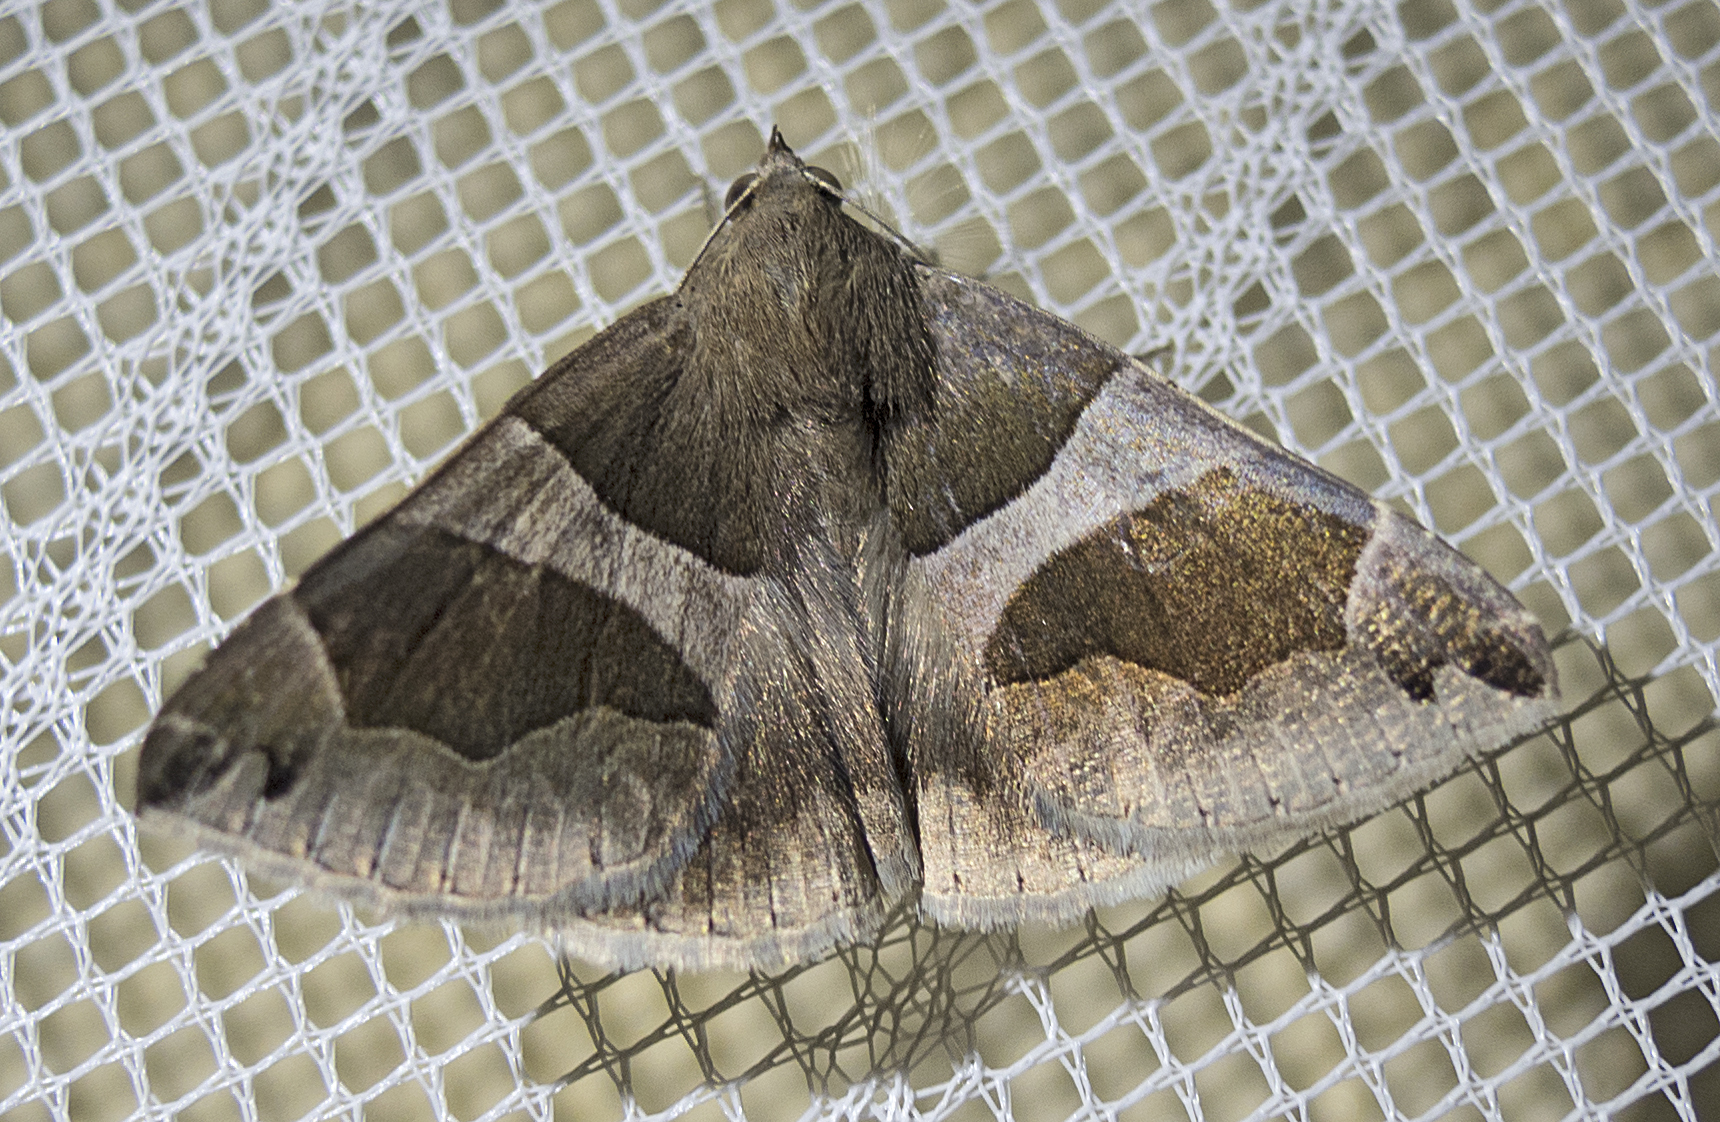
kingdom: Animalia
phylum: Arthropoda
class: Insecta
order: Lepidoptera
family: Erebidae
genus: Dysgonia
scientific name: Dysgonia algira
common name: Passenger
